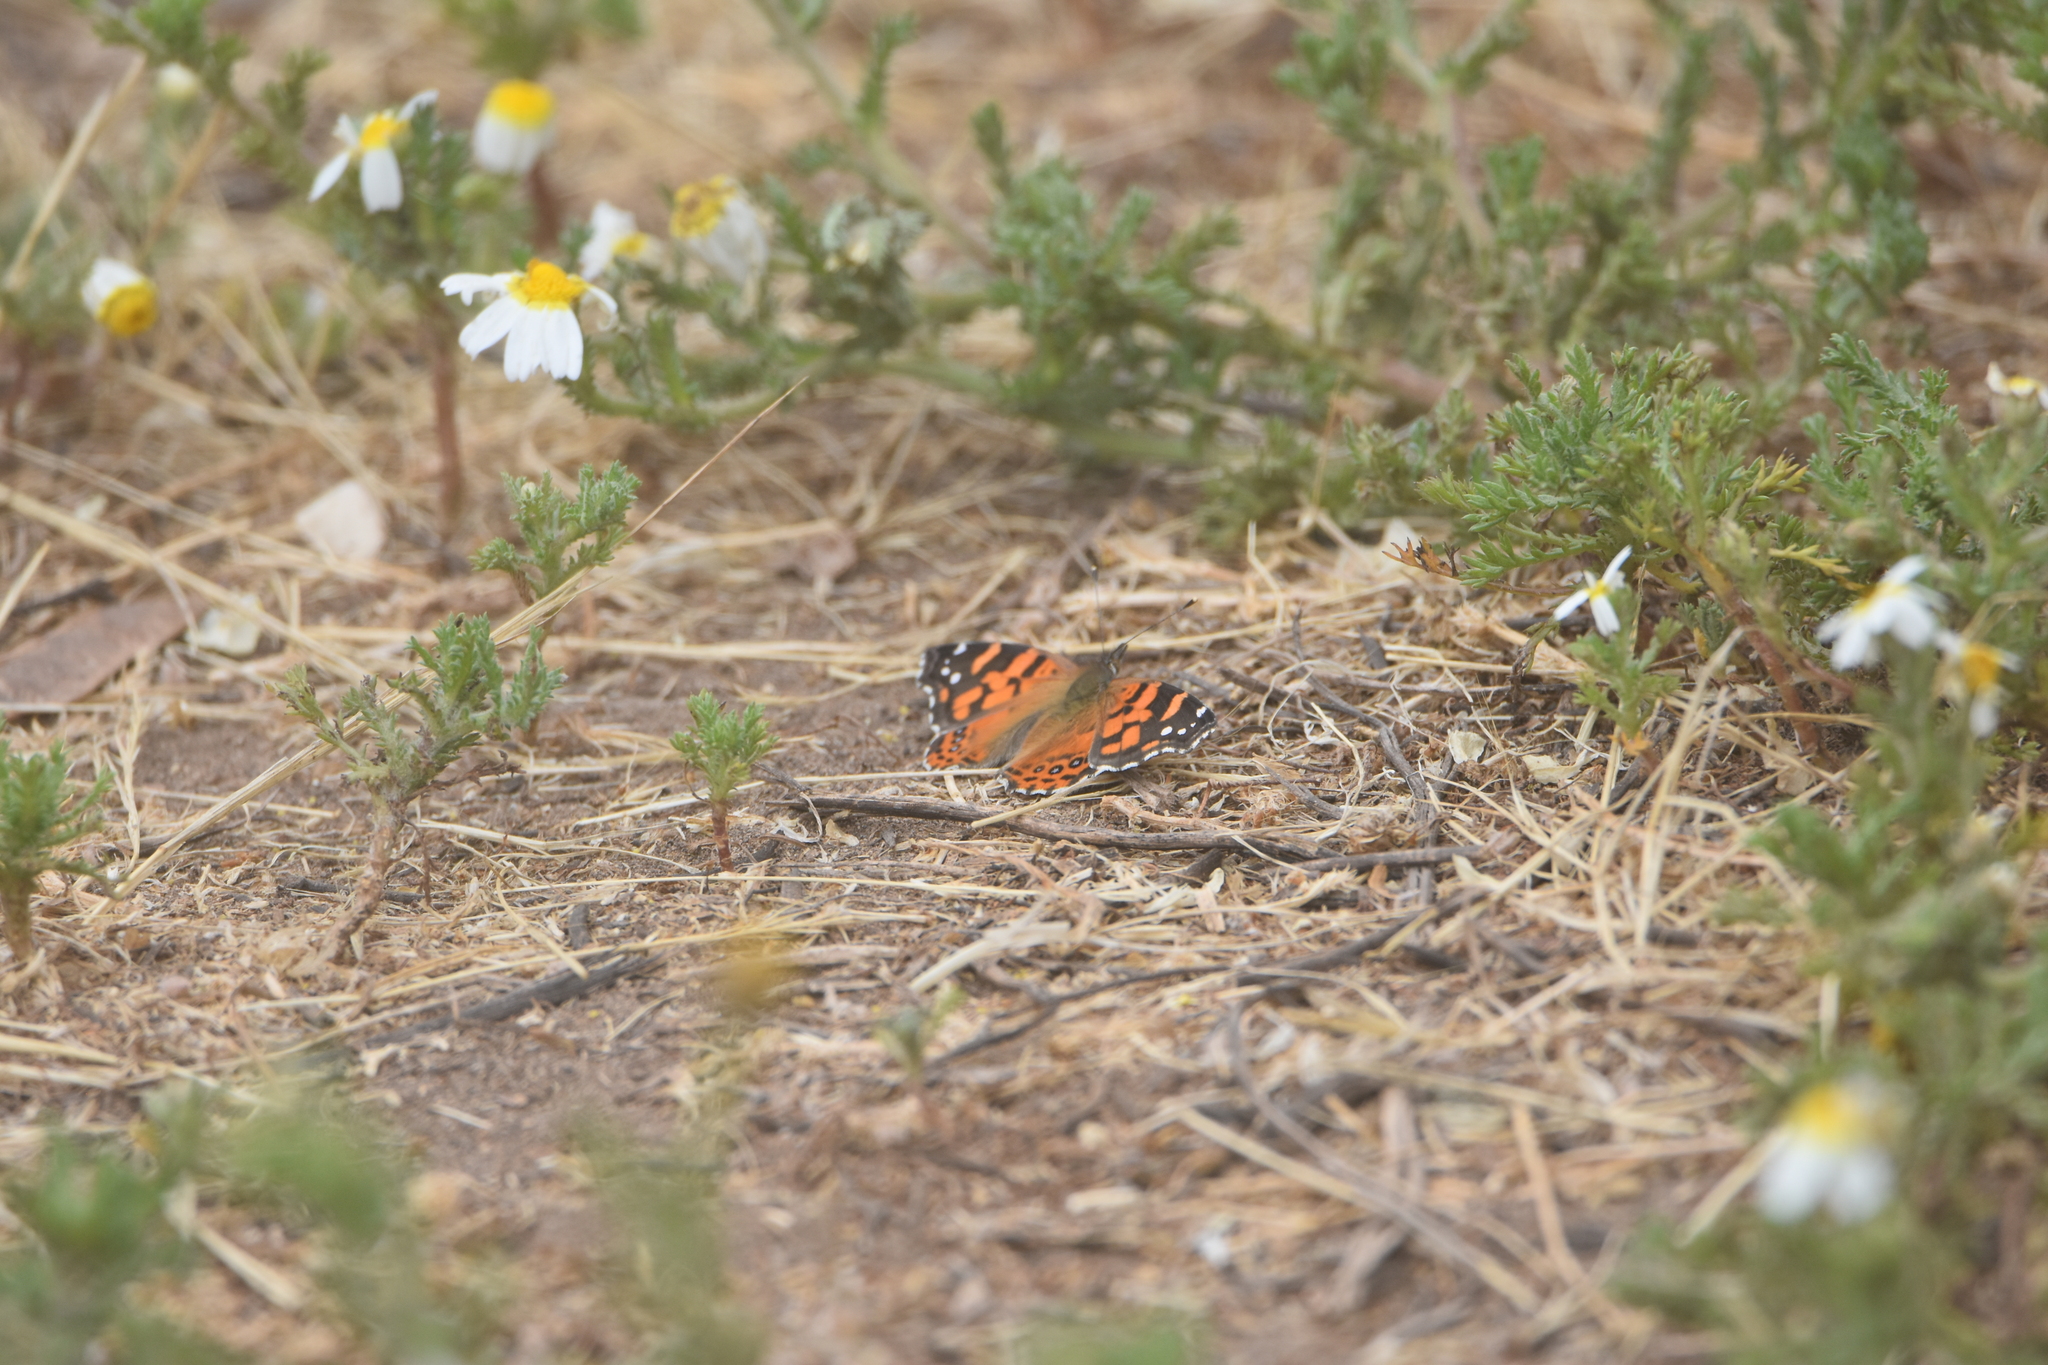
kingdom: Animalia
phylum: Arthropoda
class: Insecta
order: Lepidoptera
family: Nymphalidae
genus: Vanessa
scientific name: Vanessa carye
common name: Subtropical lady
